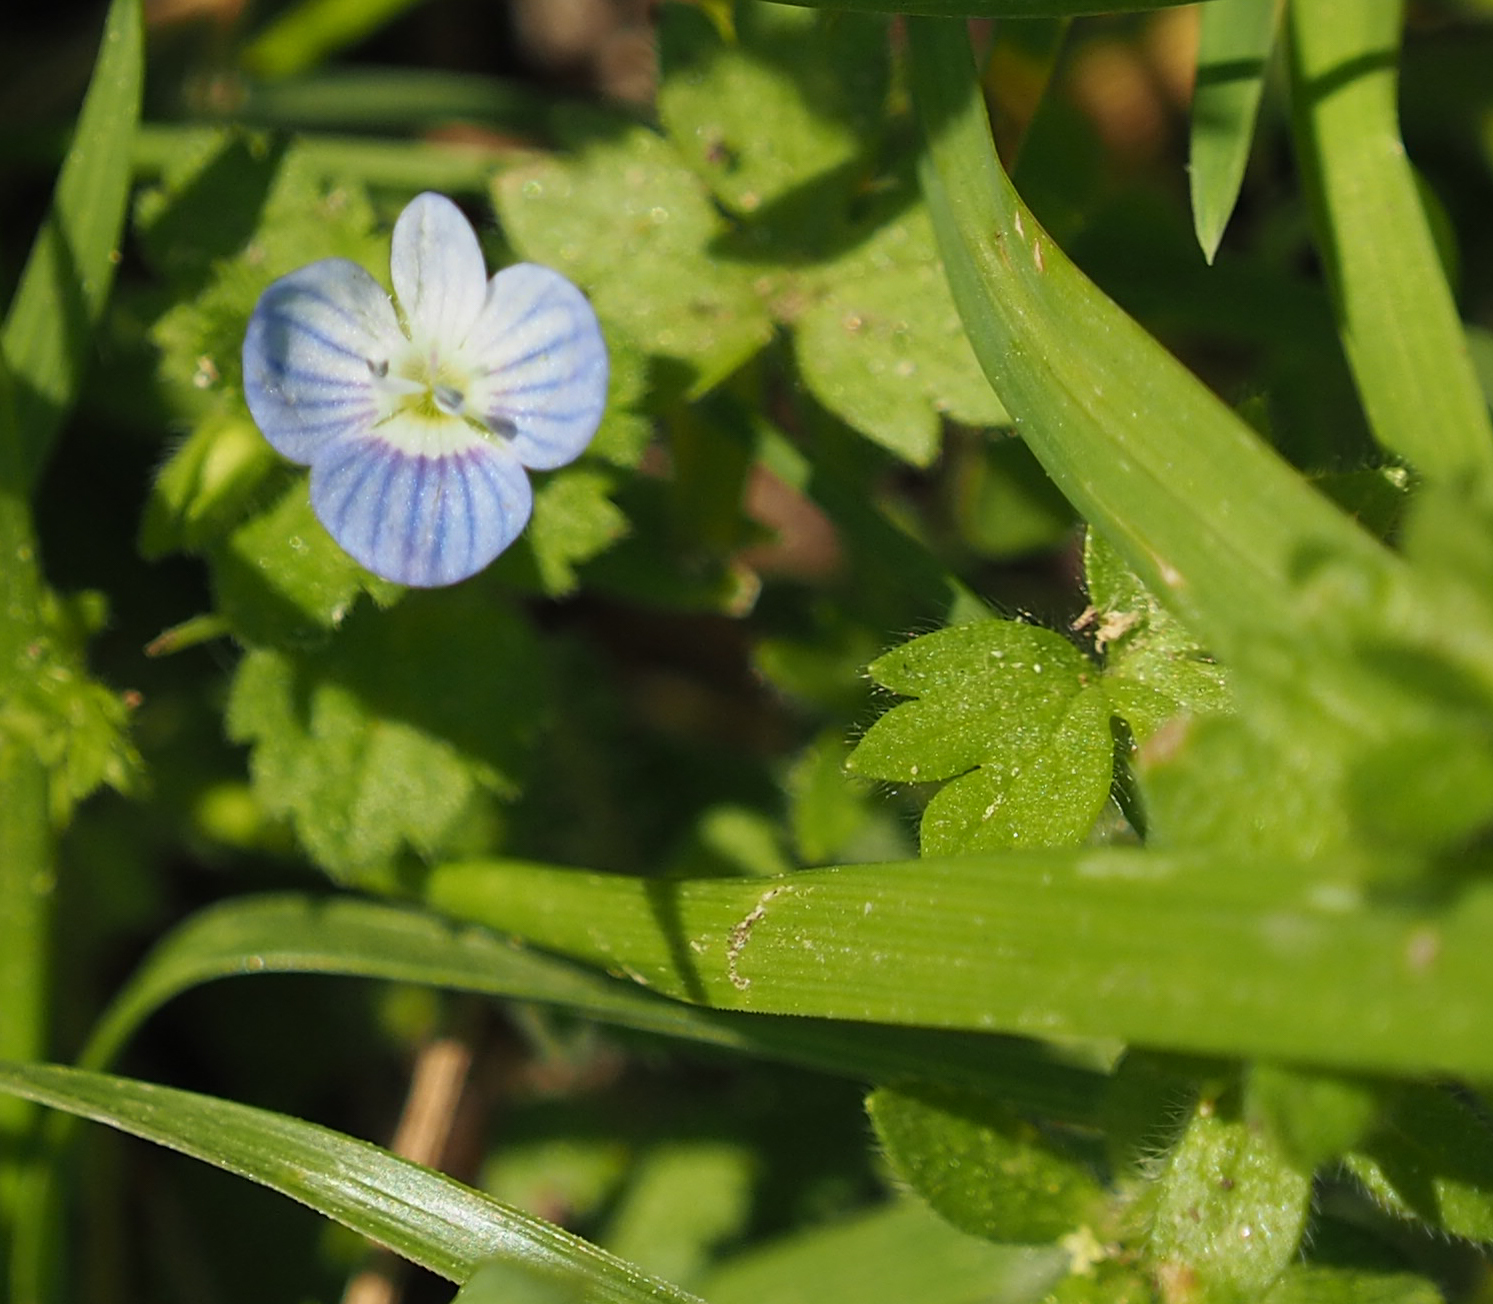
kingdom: Plantae
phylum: Tracheophyta
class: Magnoliopsida
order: Lamiales
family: Plantaginaceae
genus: Veronica
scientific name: Veronica persica
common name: Common field-speedwell
